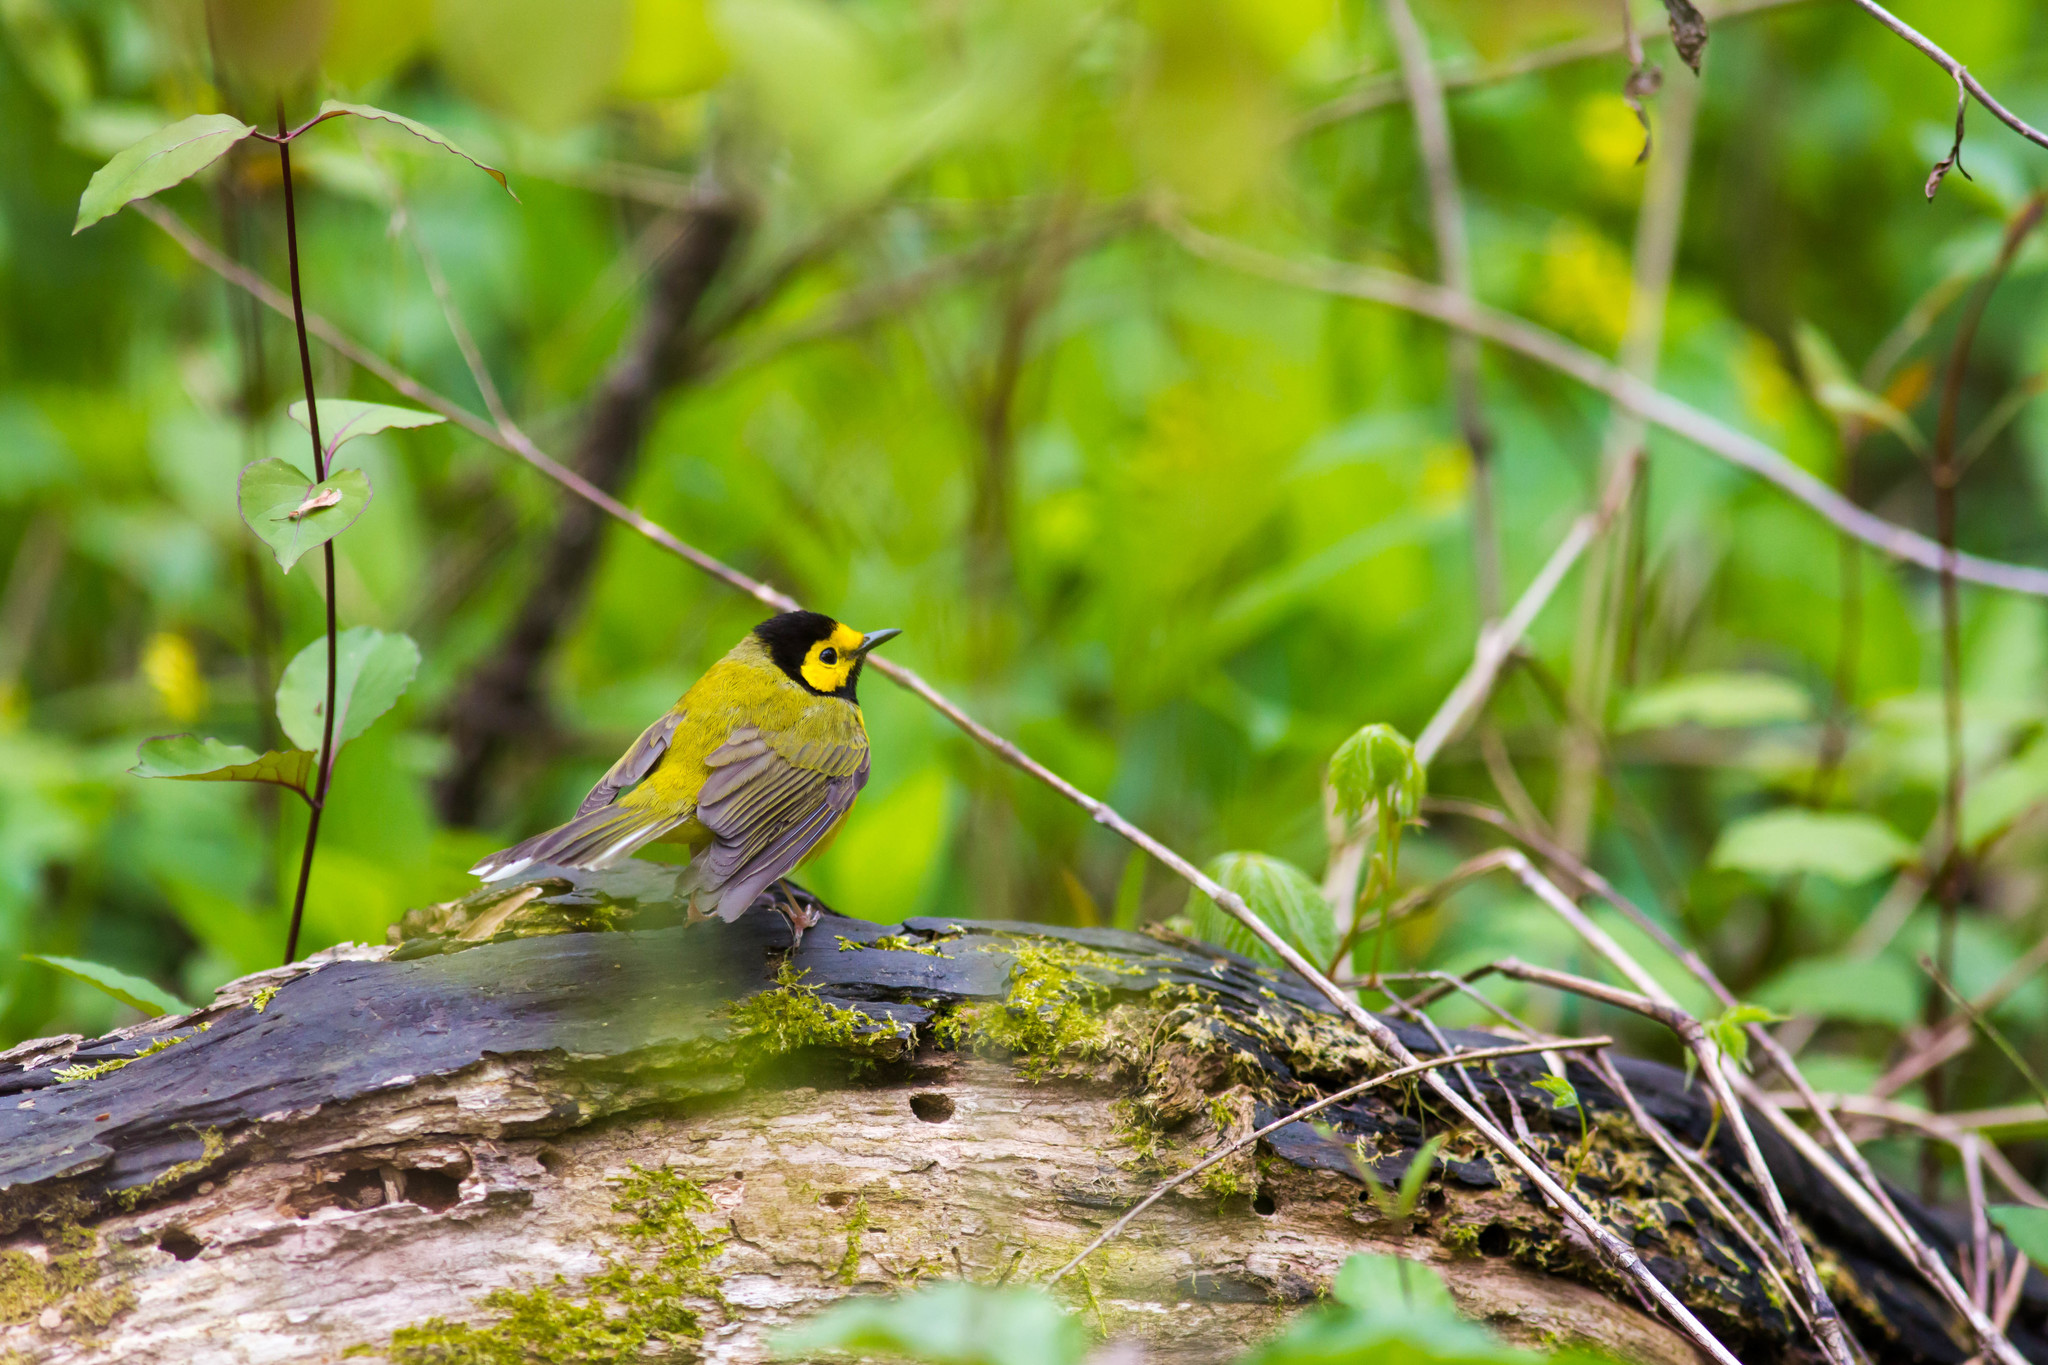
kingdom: Animalia
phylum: Chordata
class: Aves
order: Passeriformes
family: Parulidae
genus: Setophaga
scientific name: Setophaga citrina
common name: Hooded warbler
